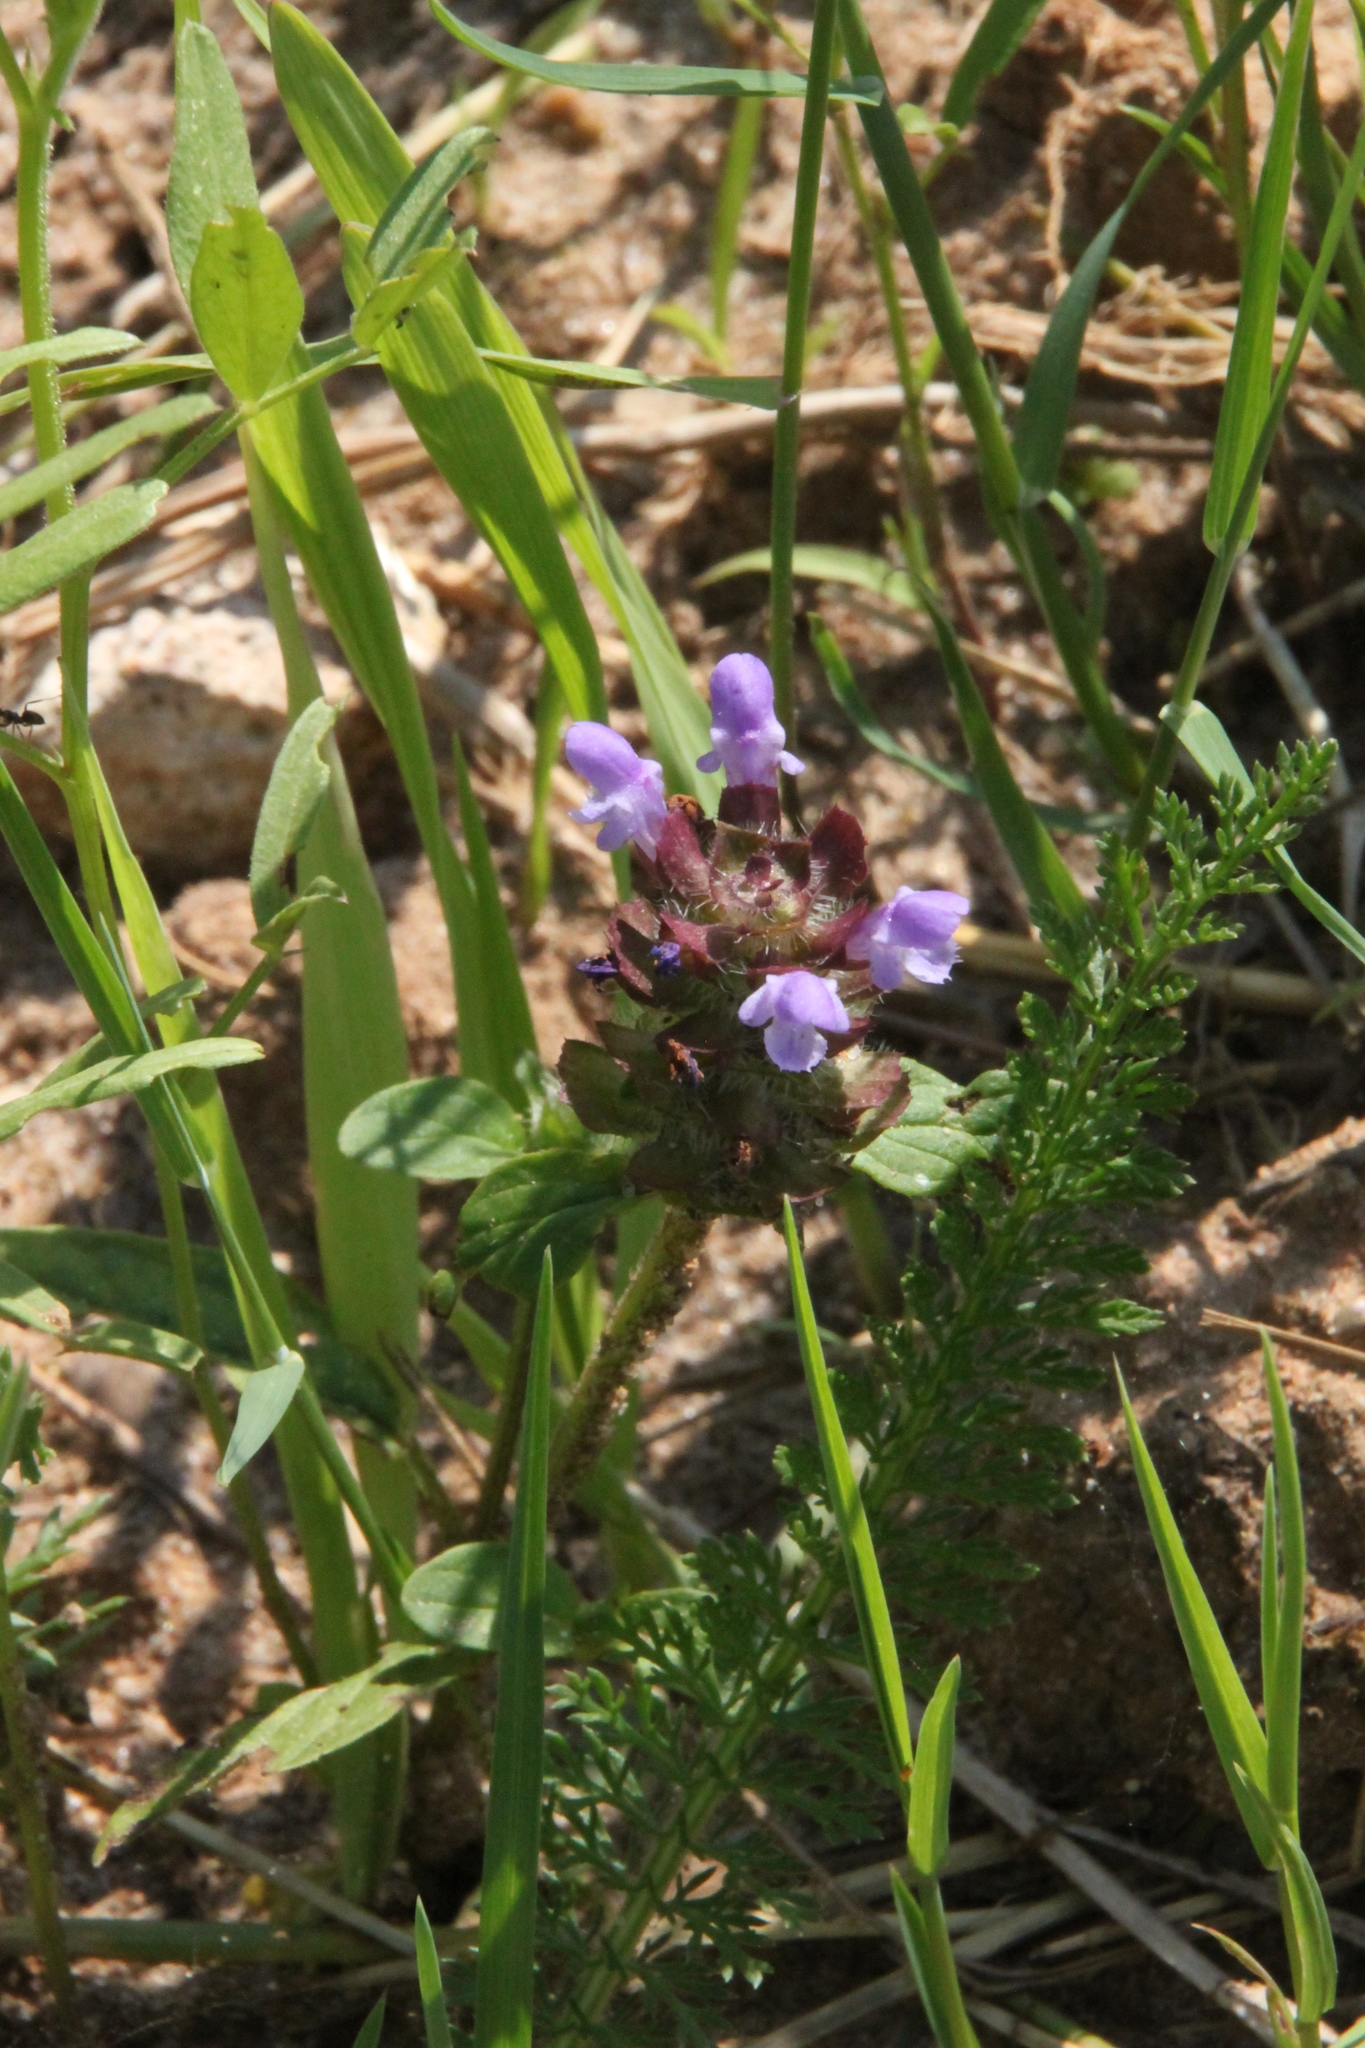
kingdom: Plantae
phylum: Tracheophyta
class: Magnoliopsida
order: Lamiales
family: Lamiaceae
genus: Prunella
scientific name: Prunella vulgaris
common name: Heal-all
